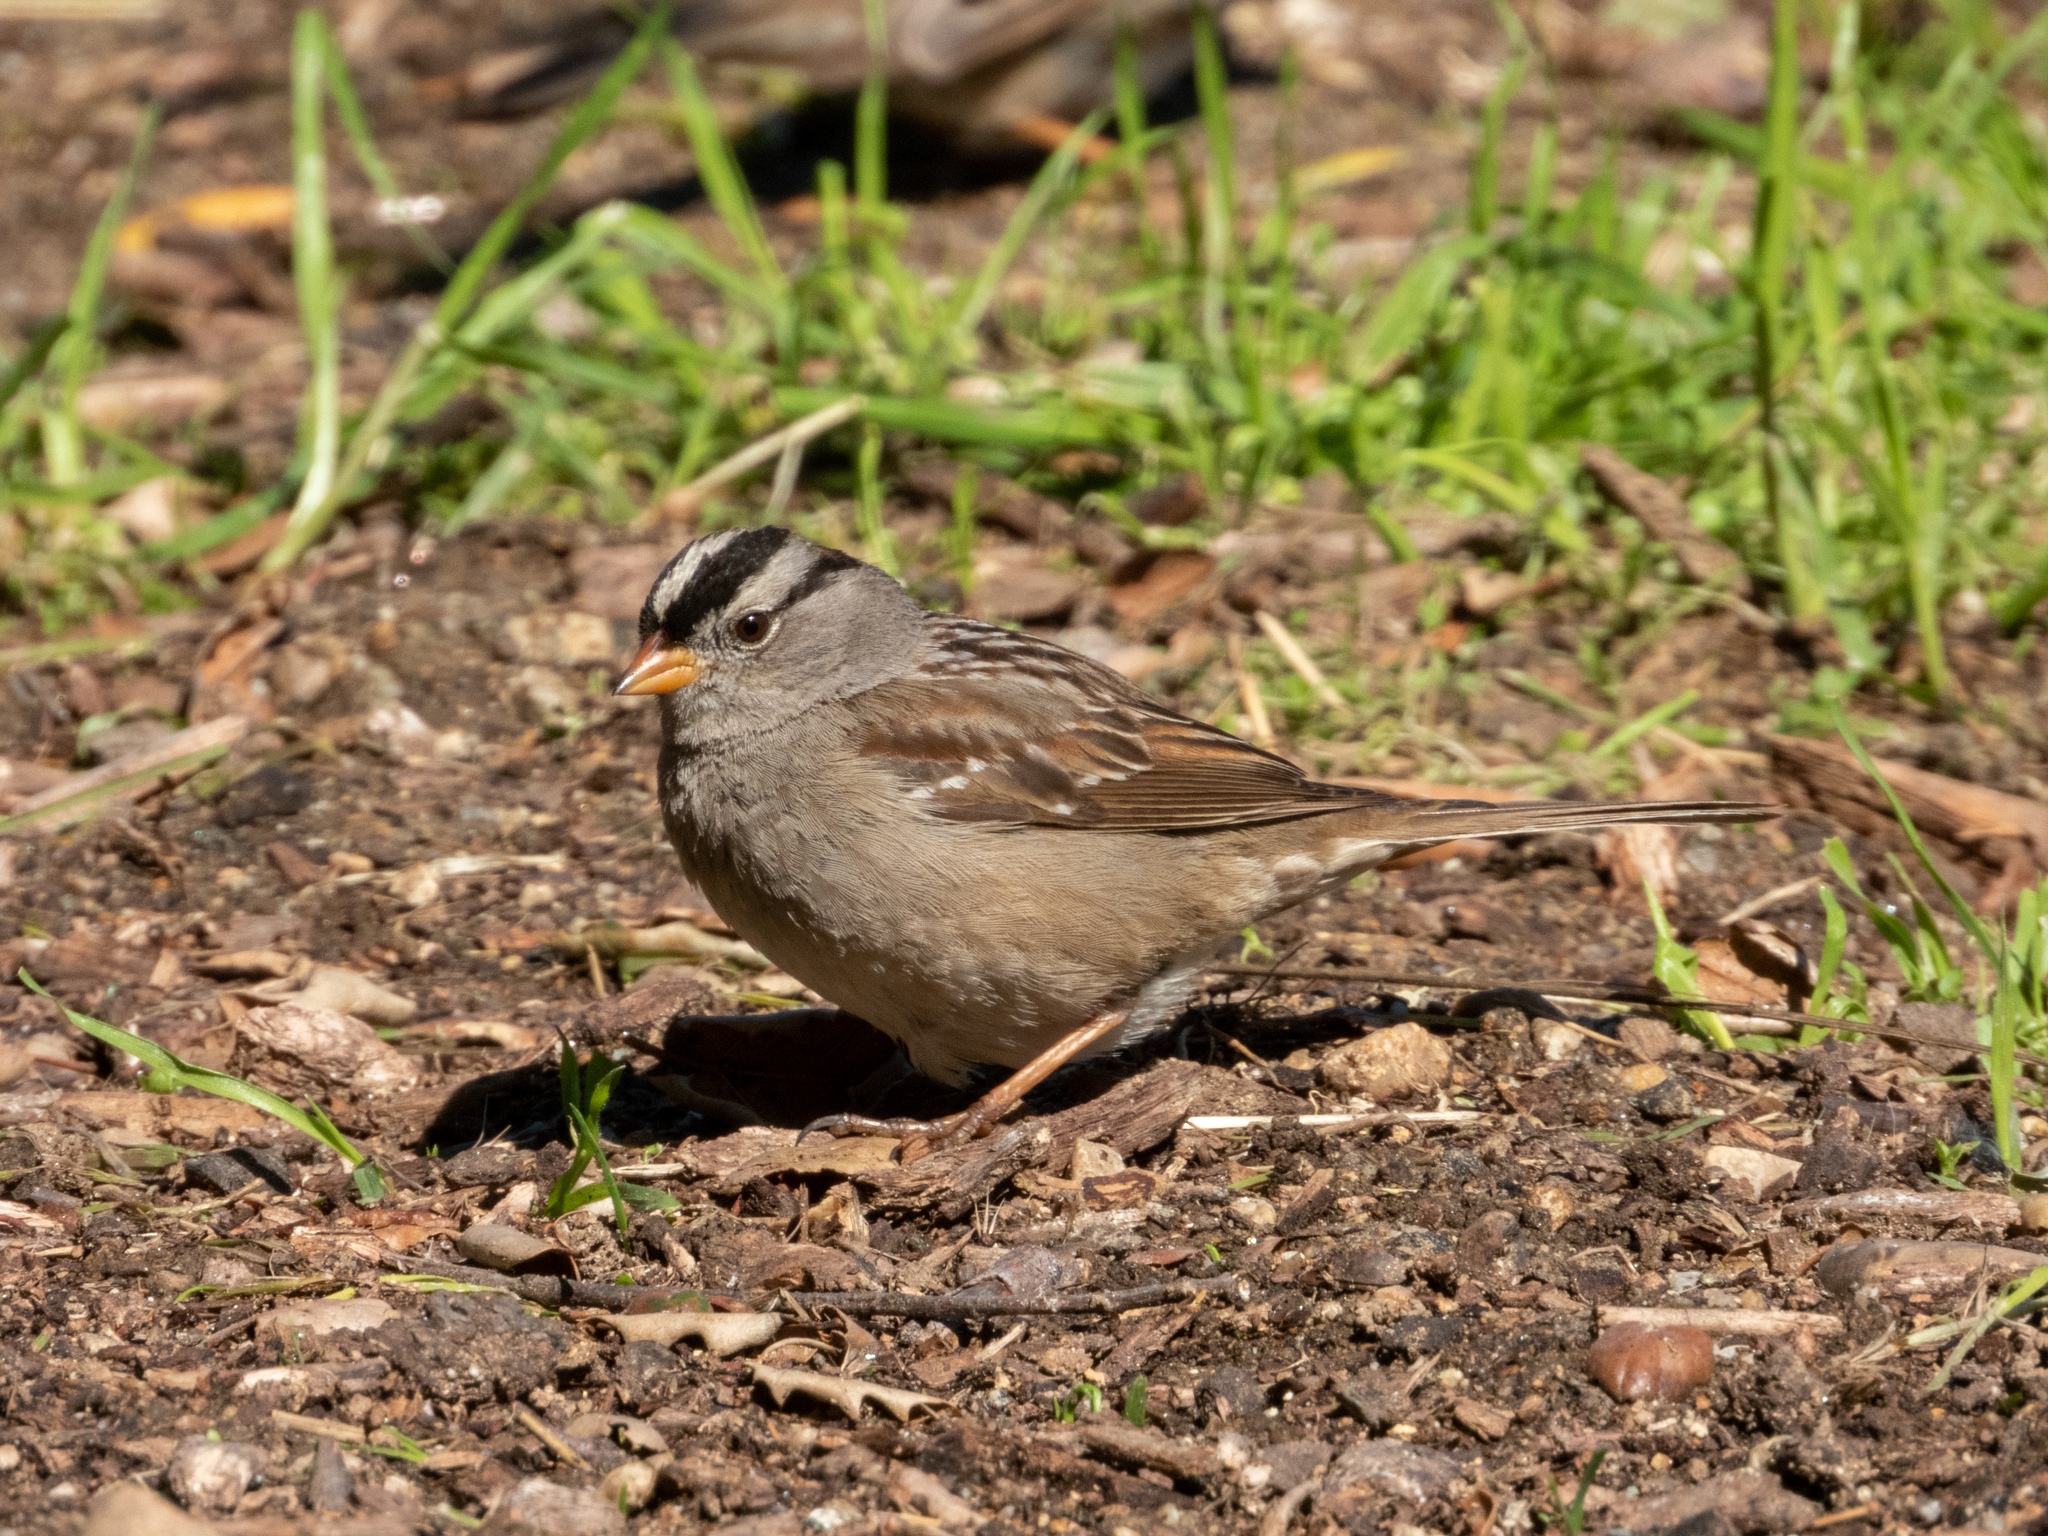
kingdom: Animalia
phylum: Chordata
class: Aves
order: Passeriformes
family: Passerellidae
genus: Zonotrichia
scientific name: Zonotrichia leucophrys
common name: White-crowned sparrow
